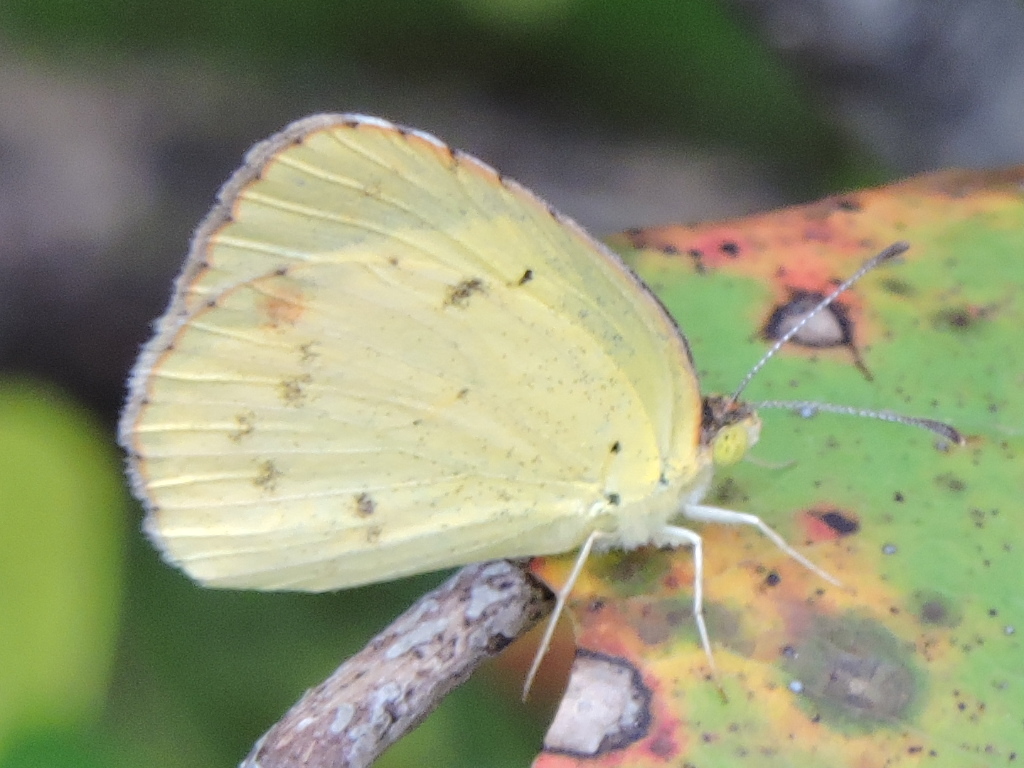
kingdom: Animalia
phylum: Arthropoda
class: Insecta
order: Lepidoptera
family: Pieridae
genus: Pyrisitia
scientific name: Pyrisitia lisa
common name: Little yellow
